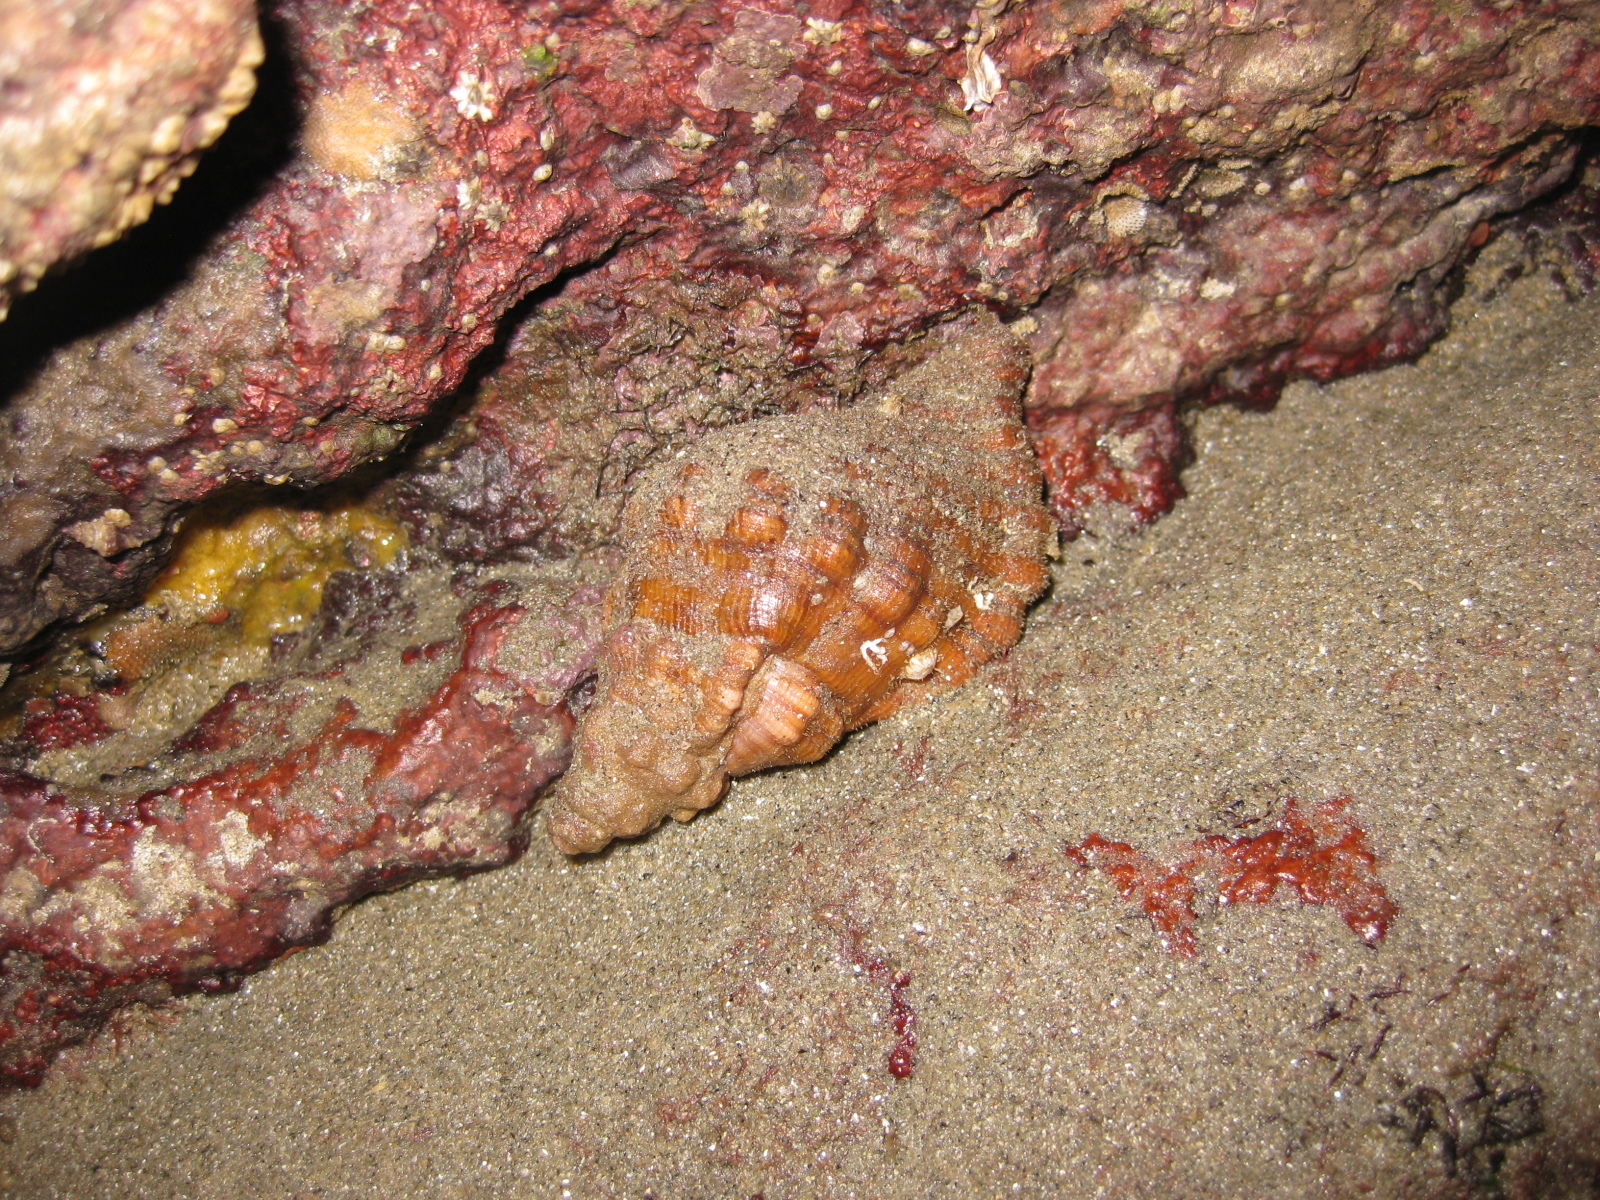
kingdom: Animalia
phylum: Mollusca
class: Gastropoda
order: Littorinimorpha
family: Cymatiidae
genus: Cabestana
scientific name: Cabestana spengleri
